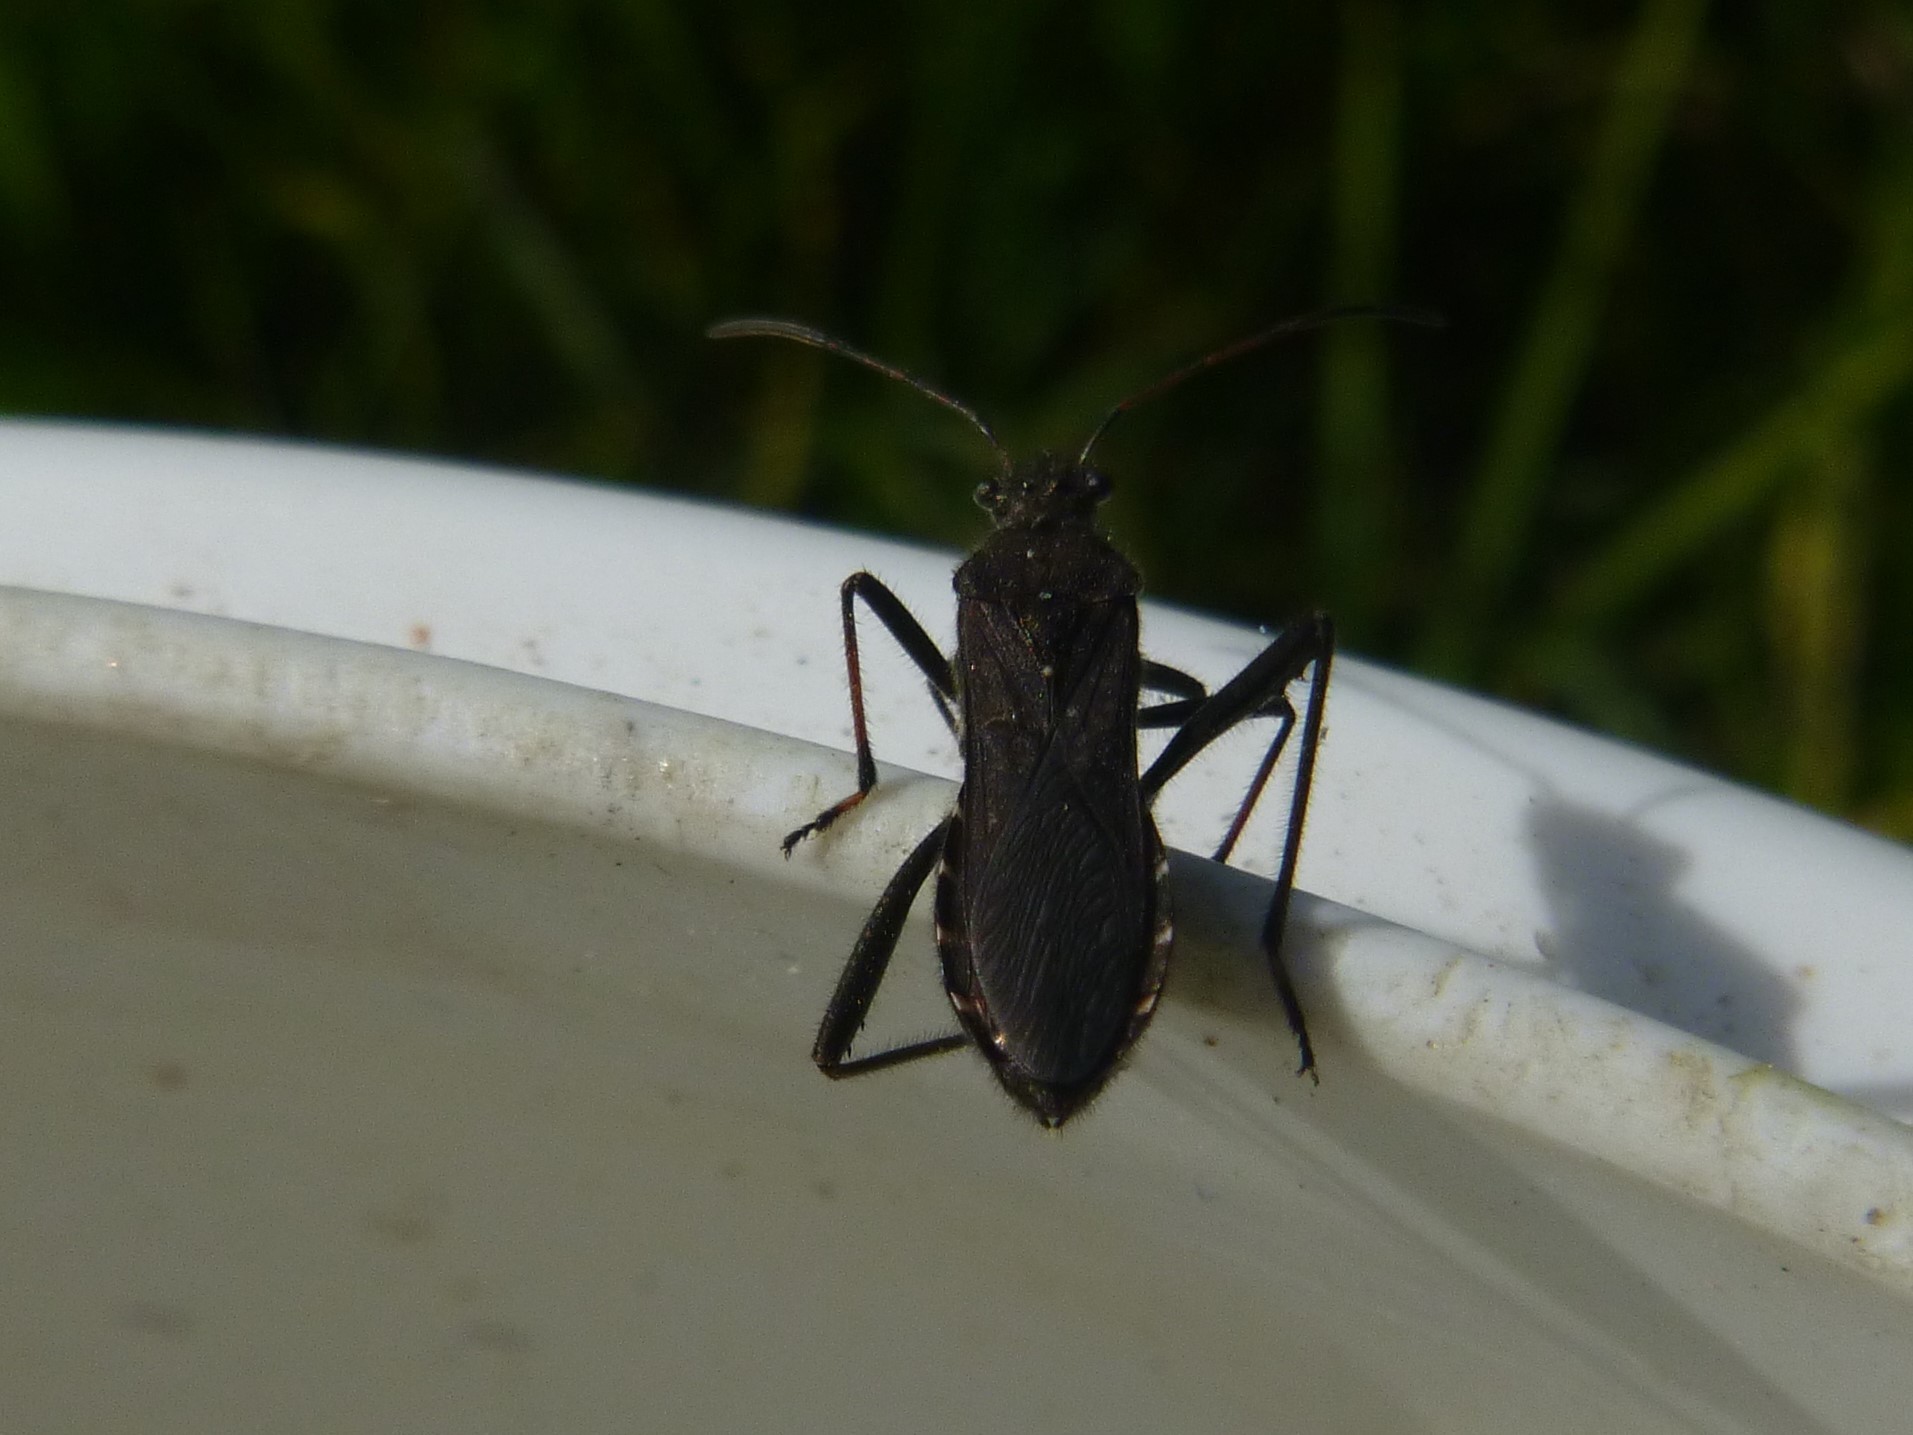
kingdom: Animalia
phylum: Arthropoda
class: Insecta
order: Hemiptera
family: Alydidae
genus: Alydus
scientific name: Alydus calcaratus
